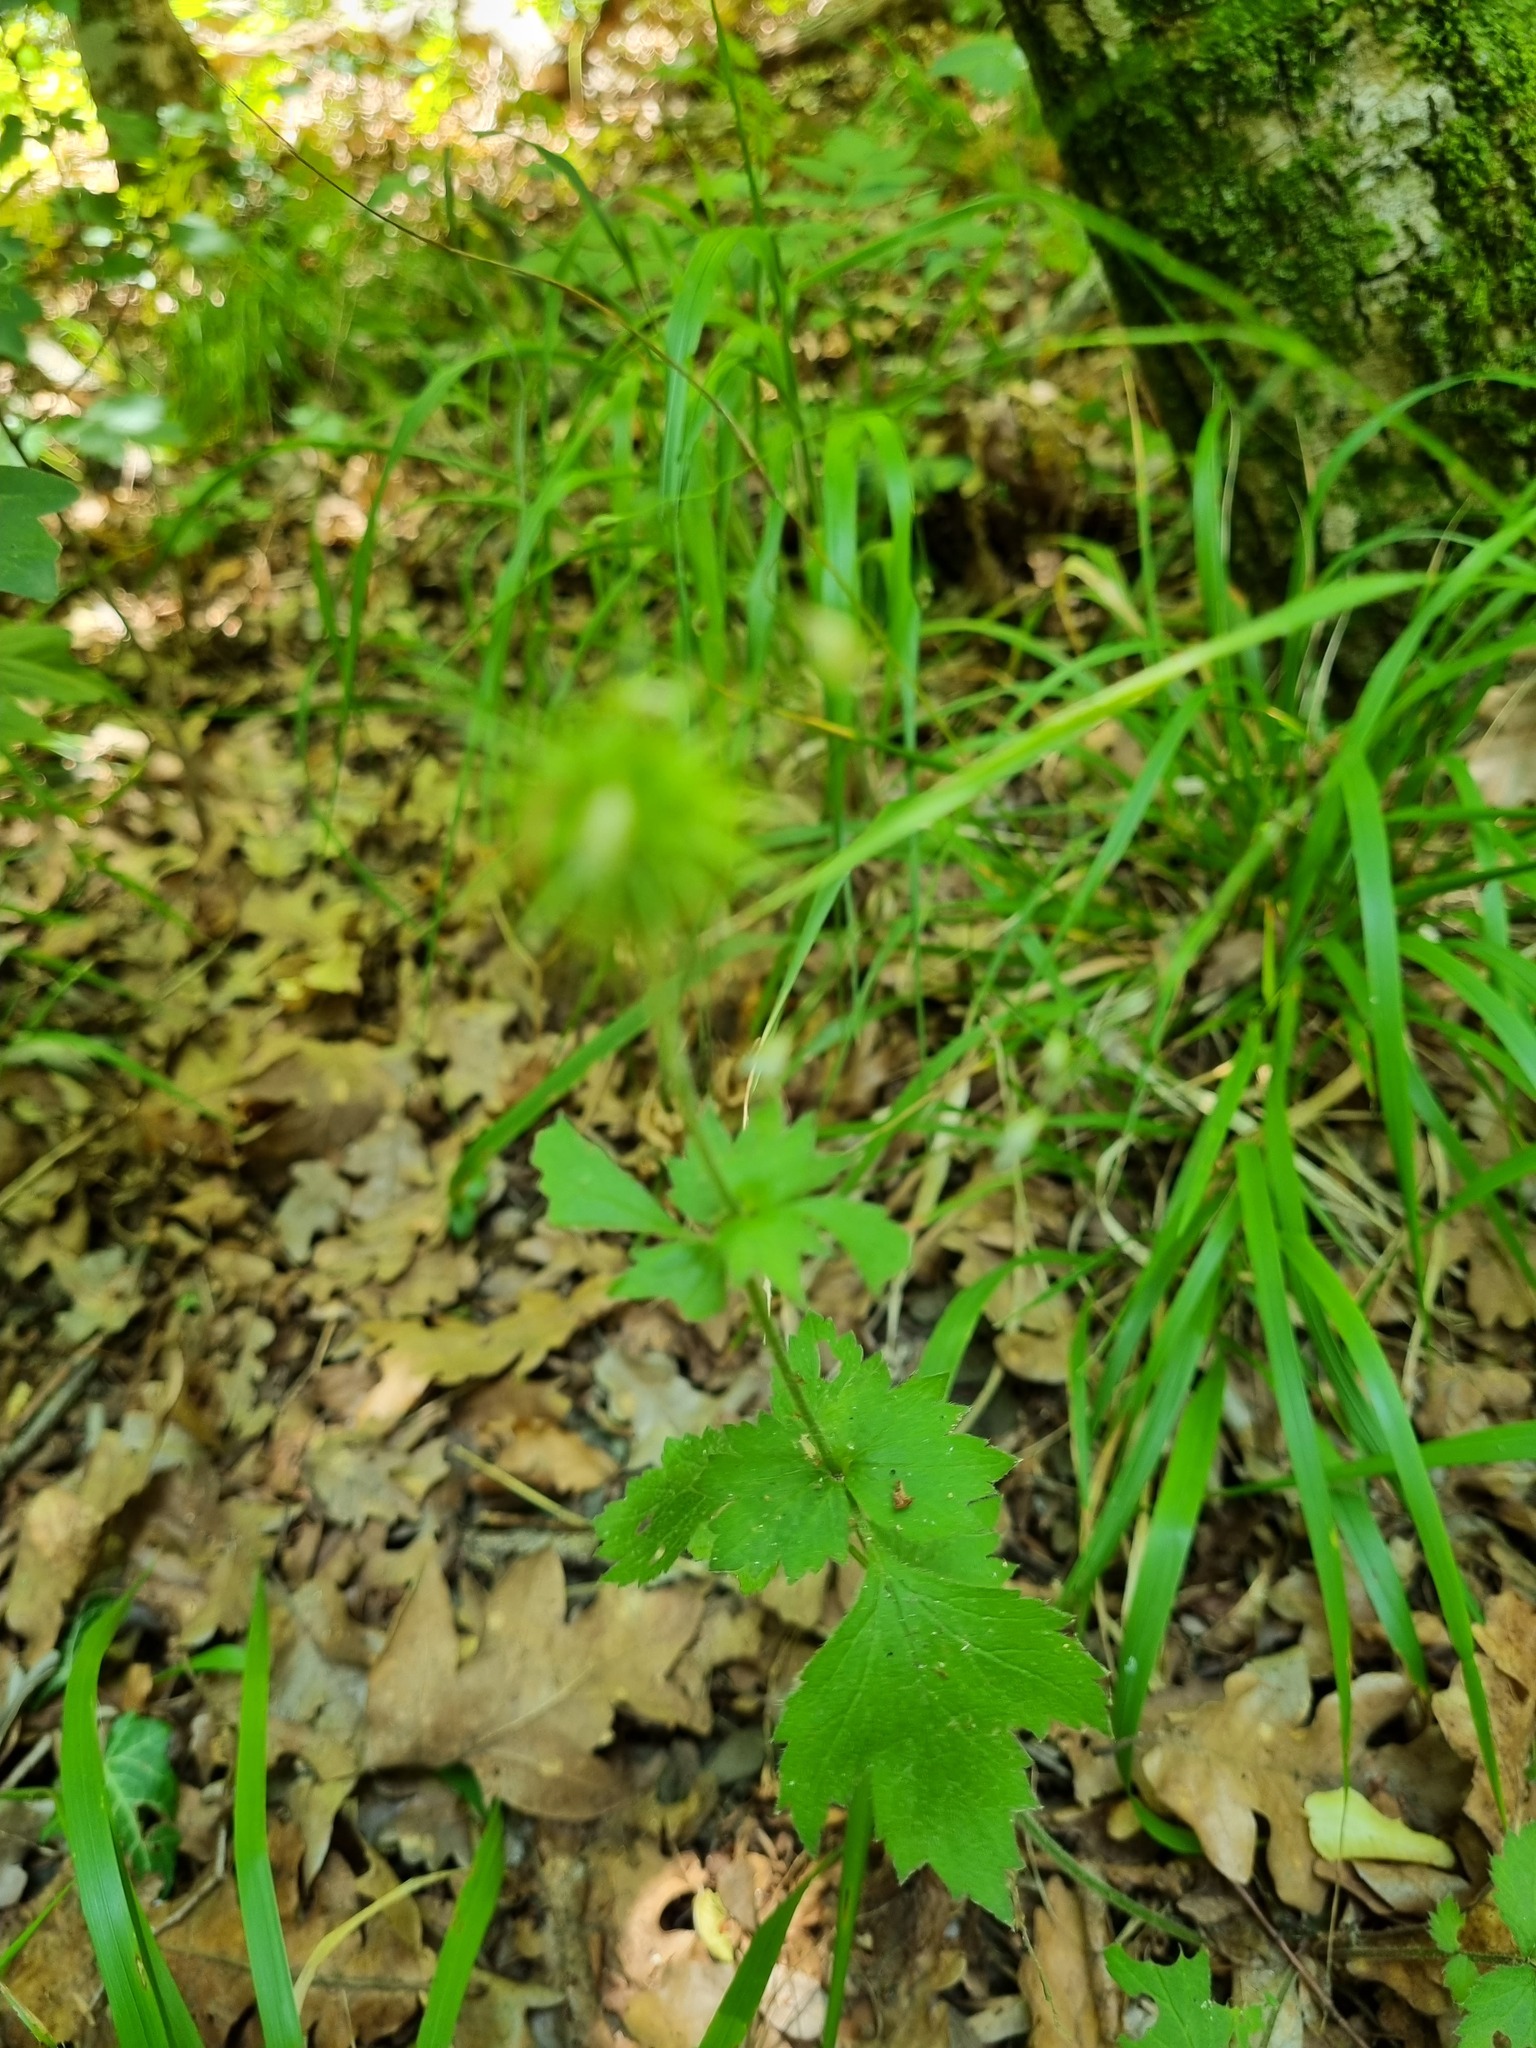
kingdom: Plantae
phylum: Tracheophyta
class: Magnoliopsida
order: Rosales
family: Rosaceae
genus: Geum
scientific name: Geum urbanum
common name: Wood avens
